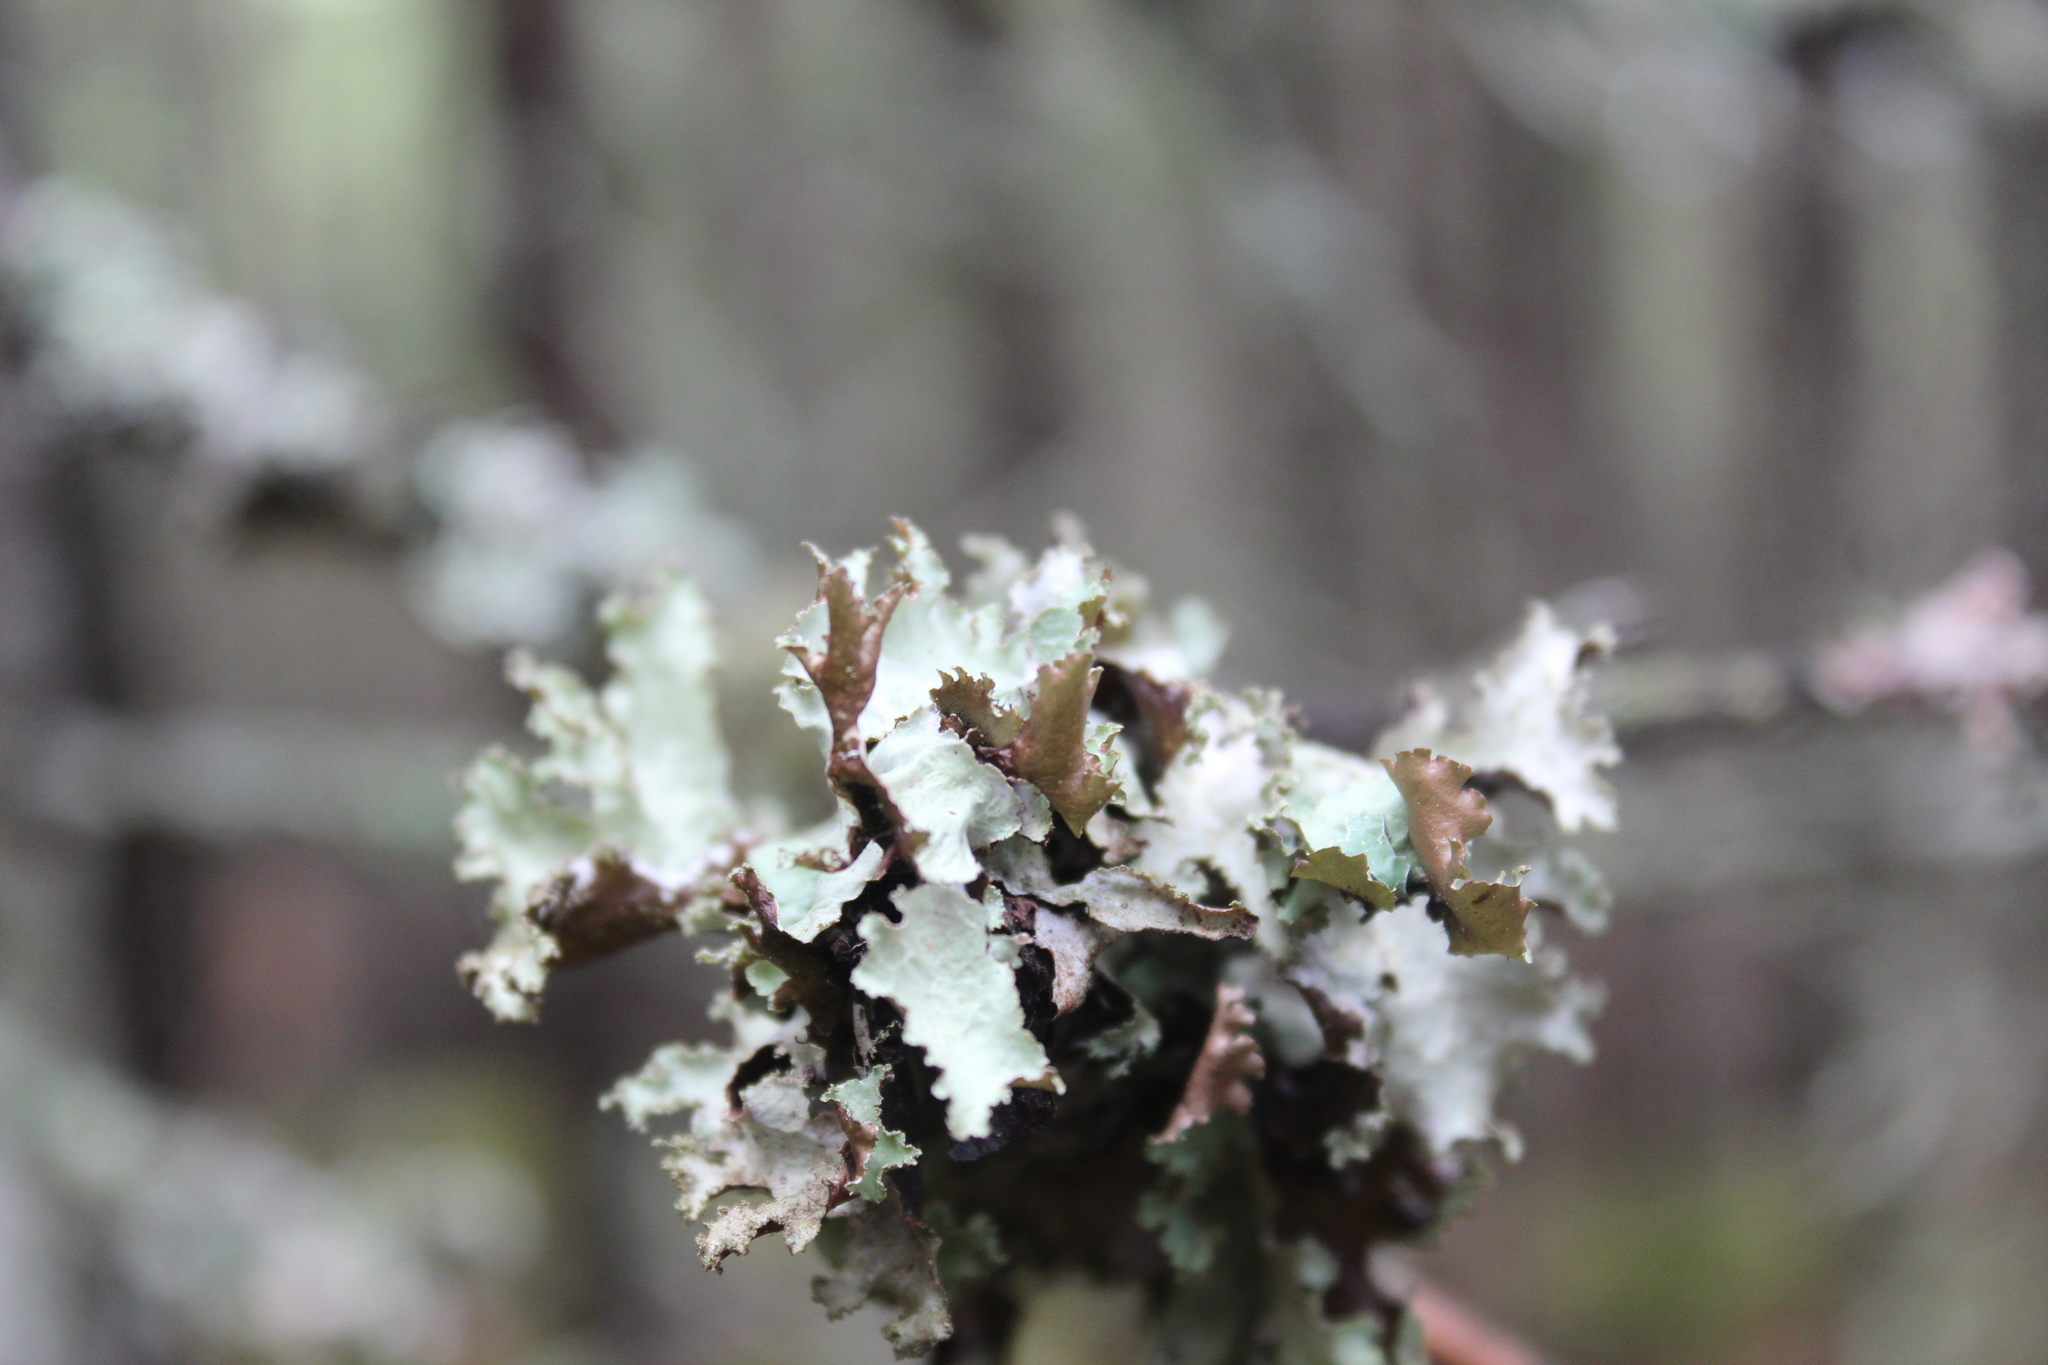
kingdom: Fungi
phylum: Ascomycota
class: Lecanoromycetes
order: Lecanorales
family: Parmeliaceae
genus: Platismatia
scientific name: Platismatia glauca
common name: Varied rag lichen
